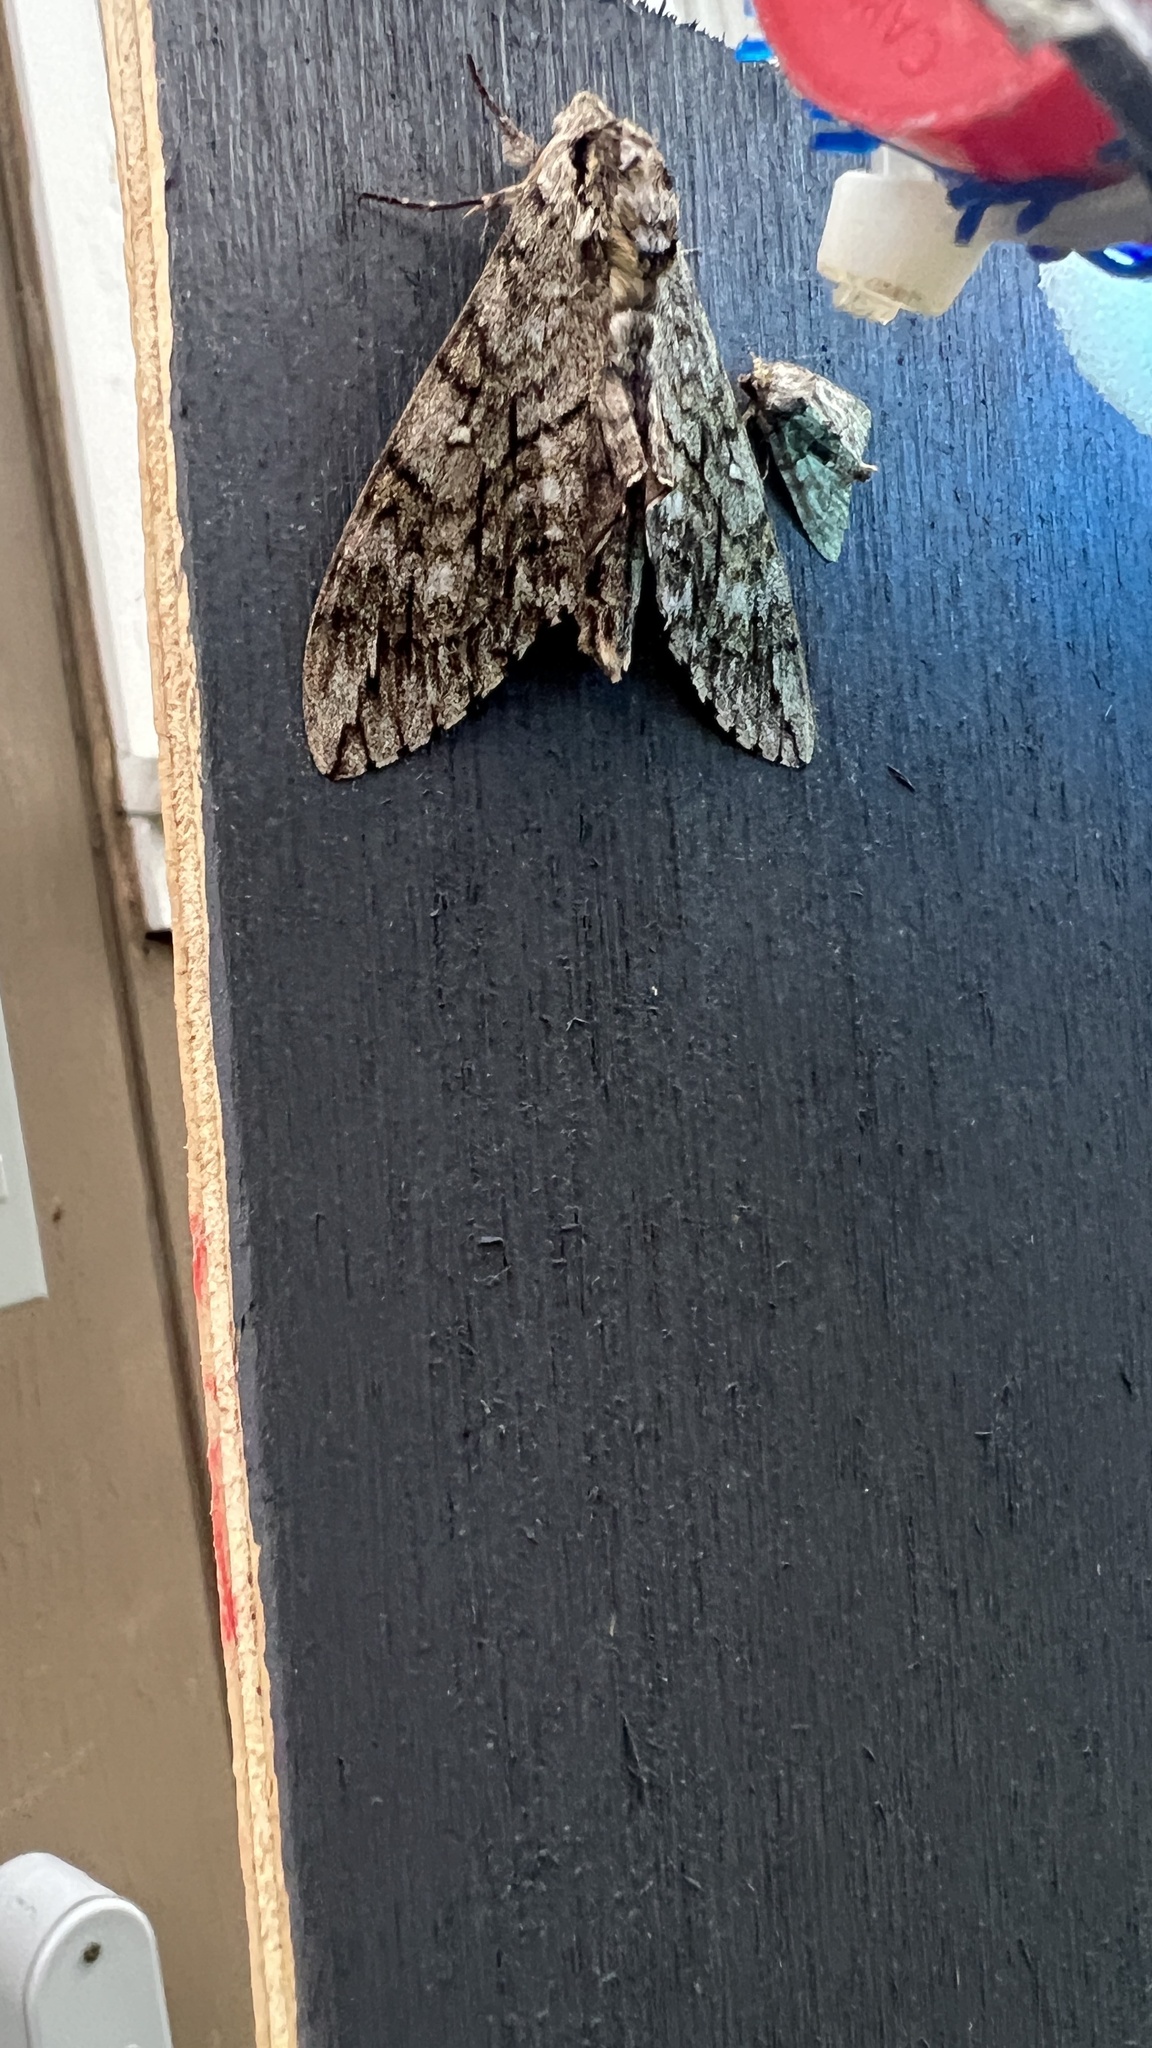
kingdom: Animalia
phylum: Arthropoda
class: Insecta
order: Lepidoptera
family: Sphingidae
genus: Ceratomia
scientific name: Ceratomia undulosa
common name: Waved sphinx
